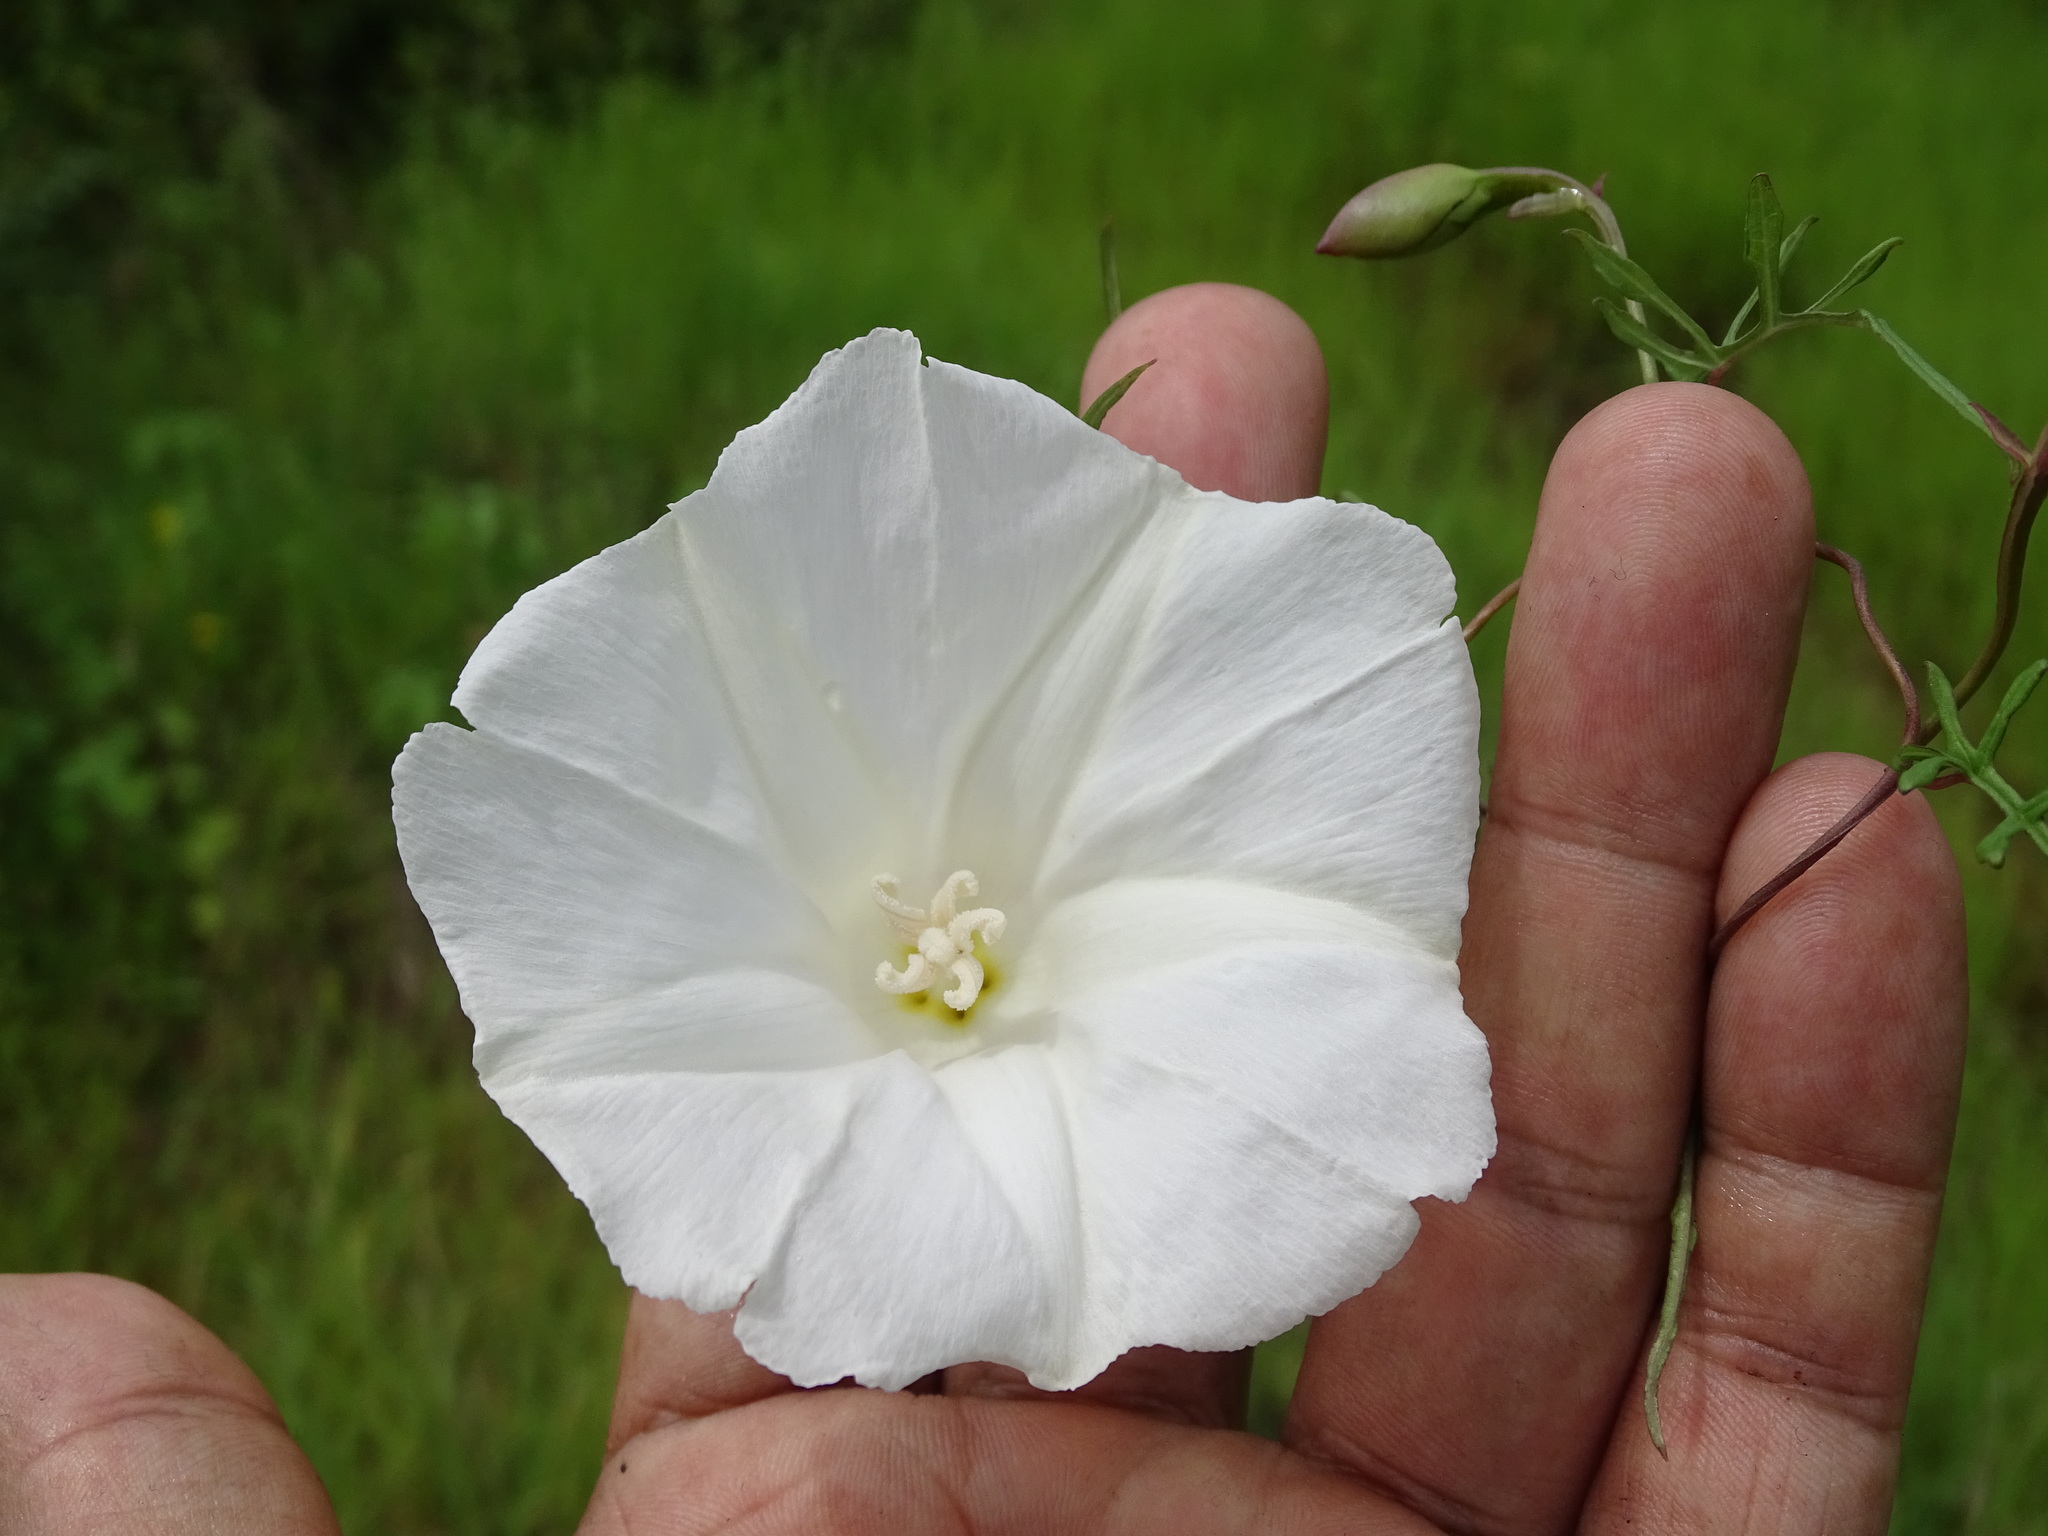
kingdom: Plantae
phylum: Tracheophyta
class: Magnoliopsida
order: Solanales
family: Convolvulaceae
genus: Operculina
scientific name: Operculina pinnatifida
